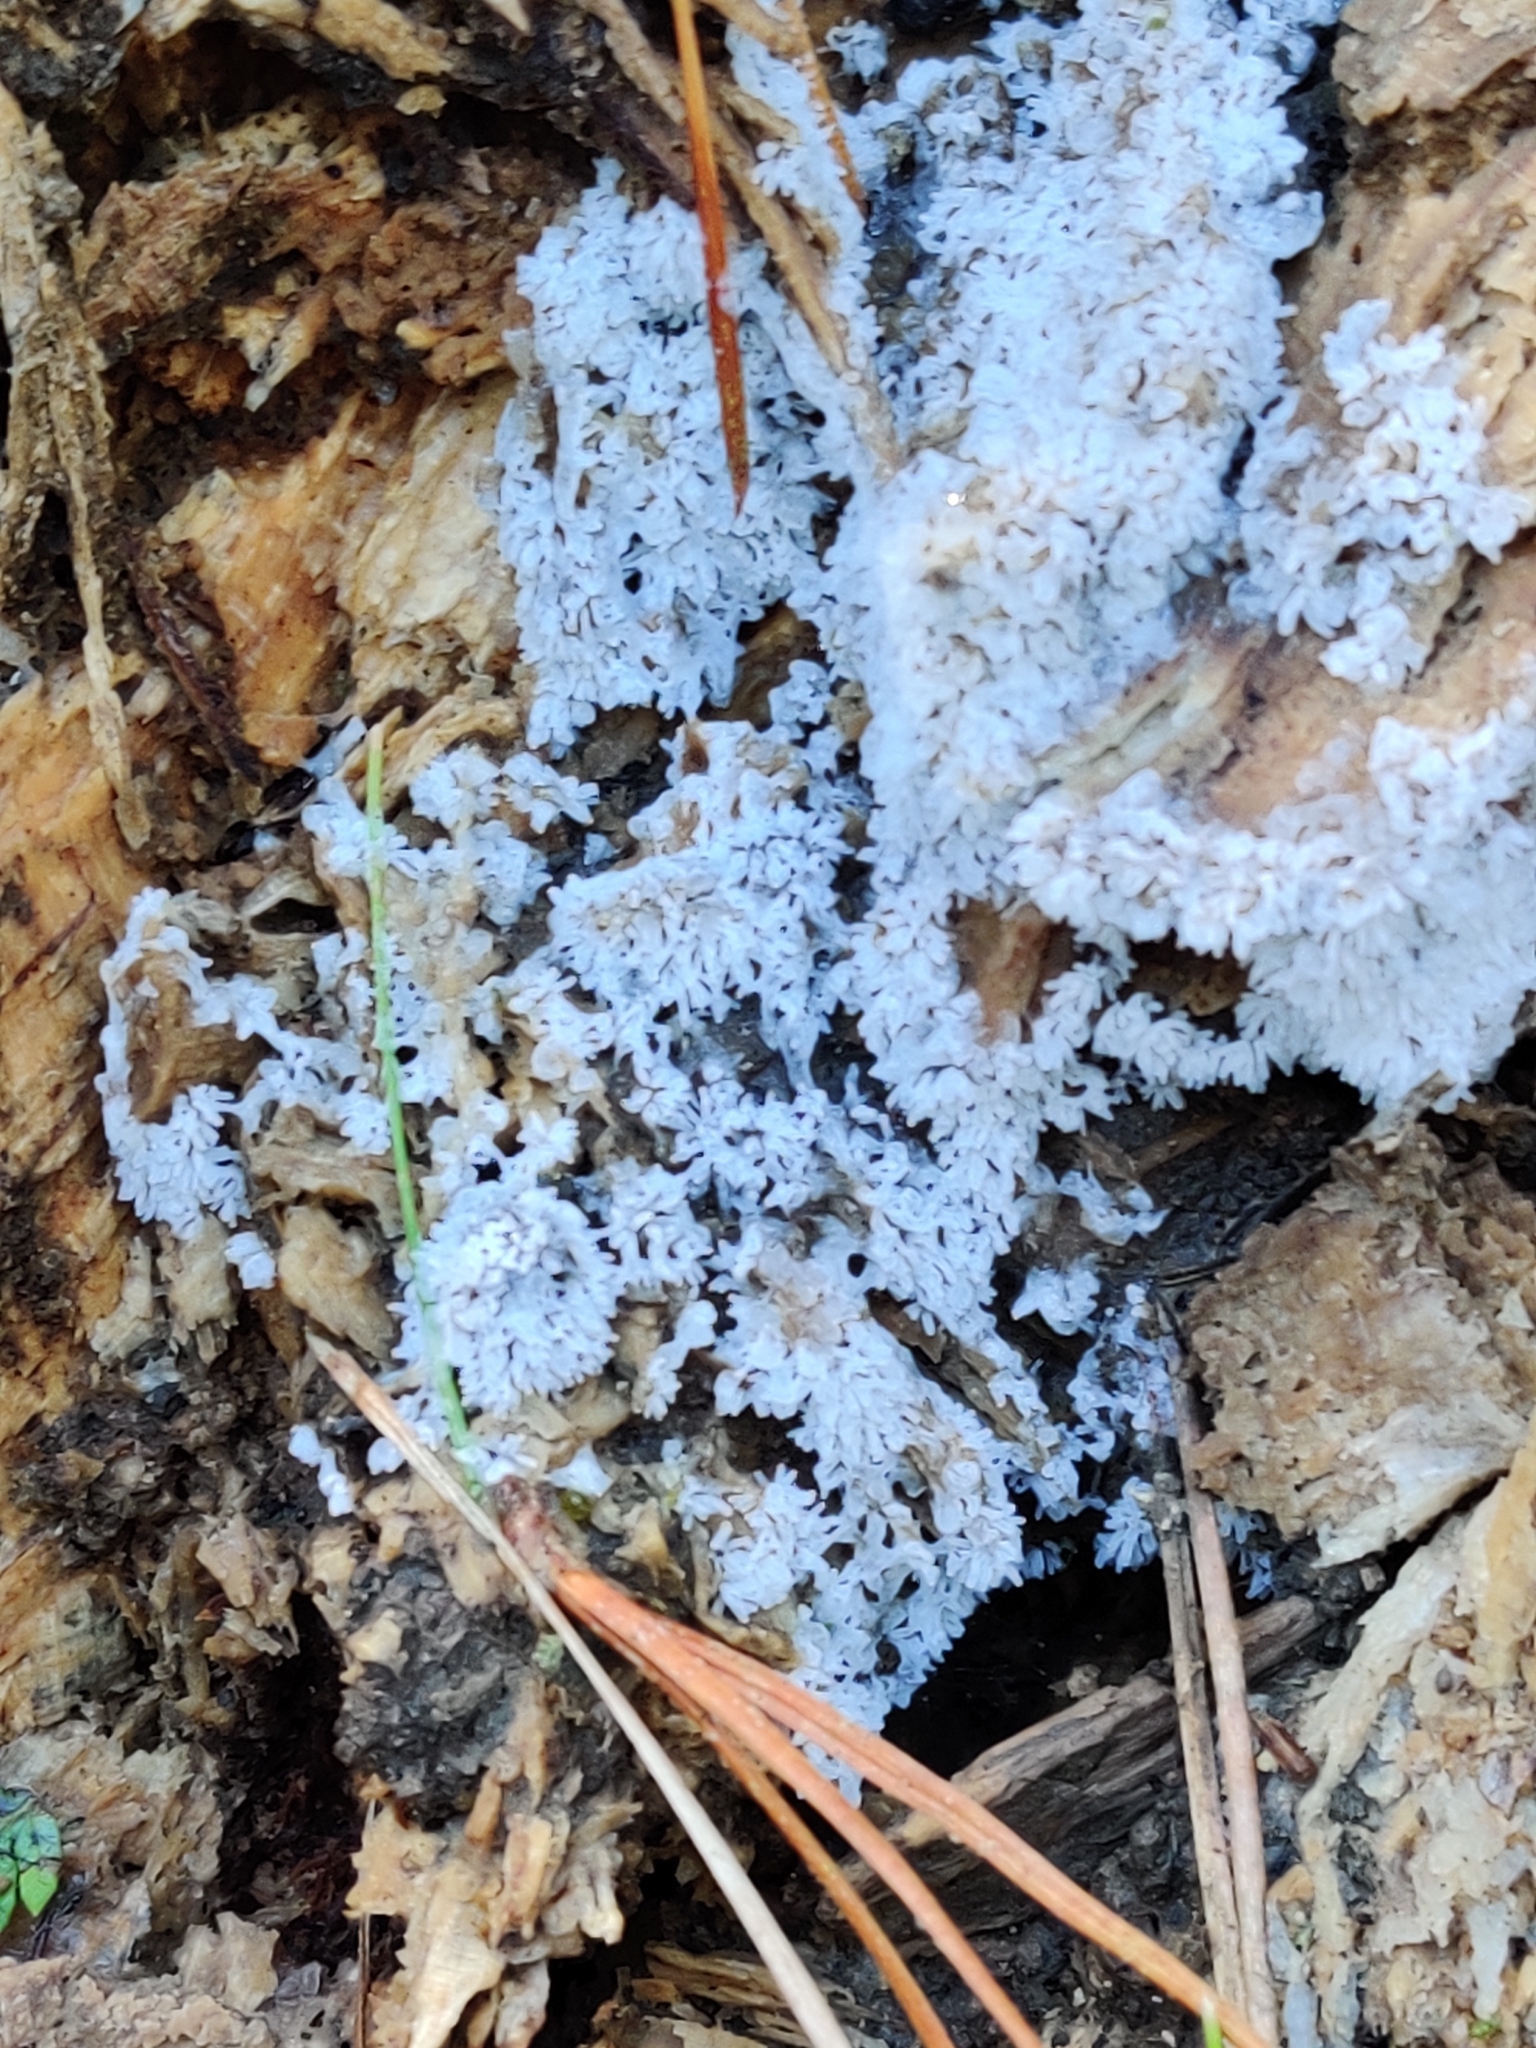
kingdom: Protozoa
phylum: Mycetozoa
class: Protosteliomycetes
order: Ceratiomyxales
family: Ceratiomyxaceae
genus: Ceratiomyxa
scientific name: Ceratiomyxa fruticulosa
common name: Honeycomb coral slime mold
